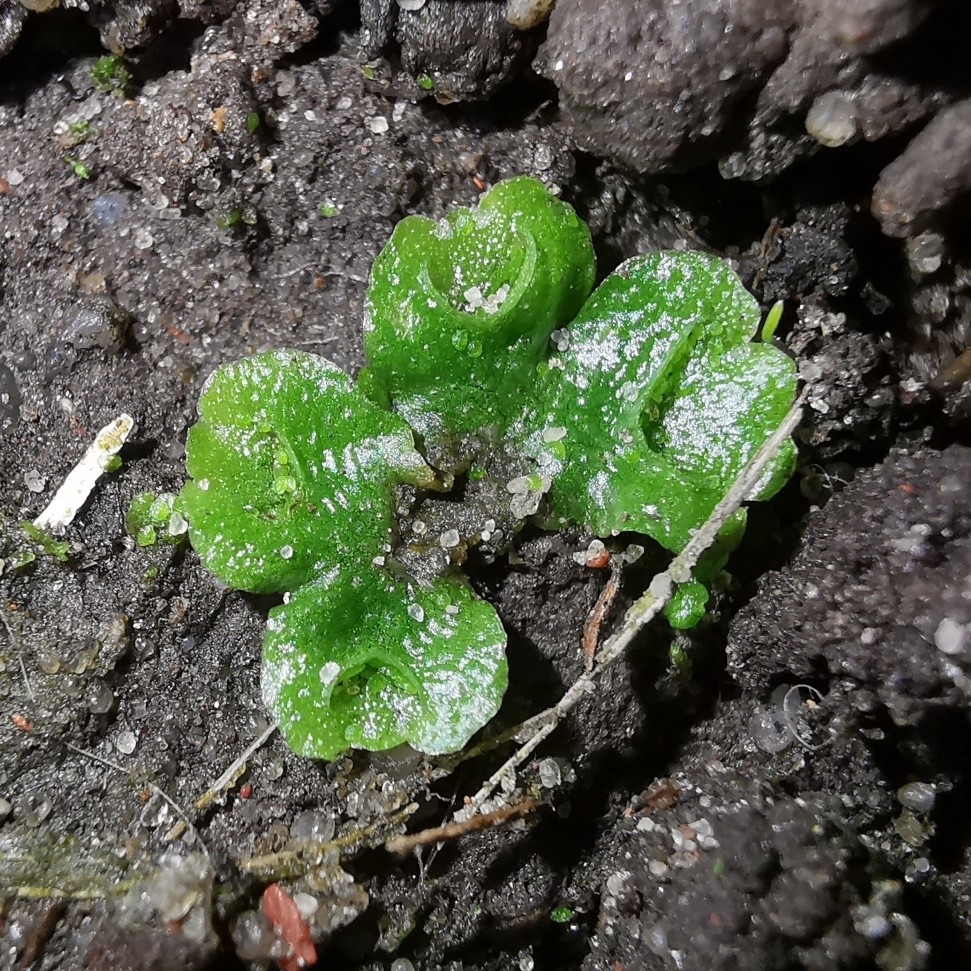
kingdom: Plantae
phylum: Marchantiophyta
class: Marchantiopsida
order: Lunulariales
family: Lunulariaceae
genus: Lunularia
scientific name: Lunularia cruciata
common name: Crescent-cup liverwort
